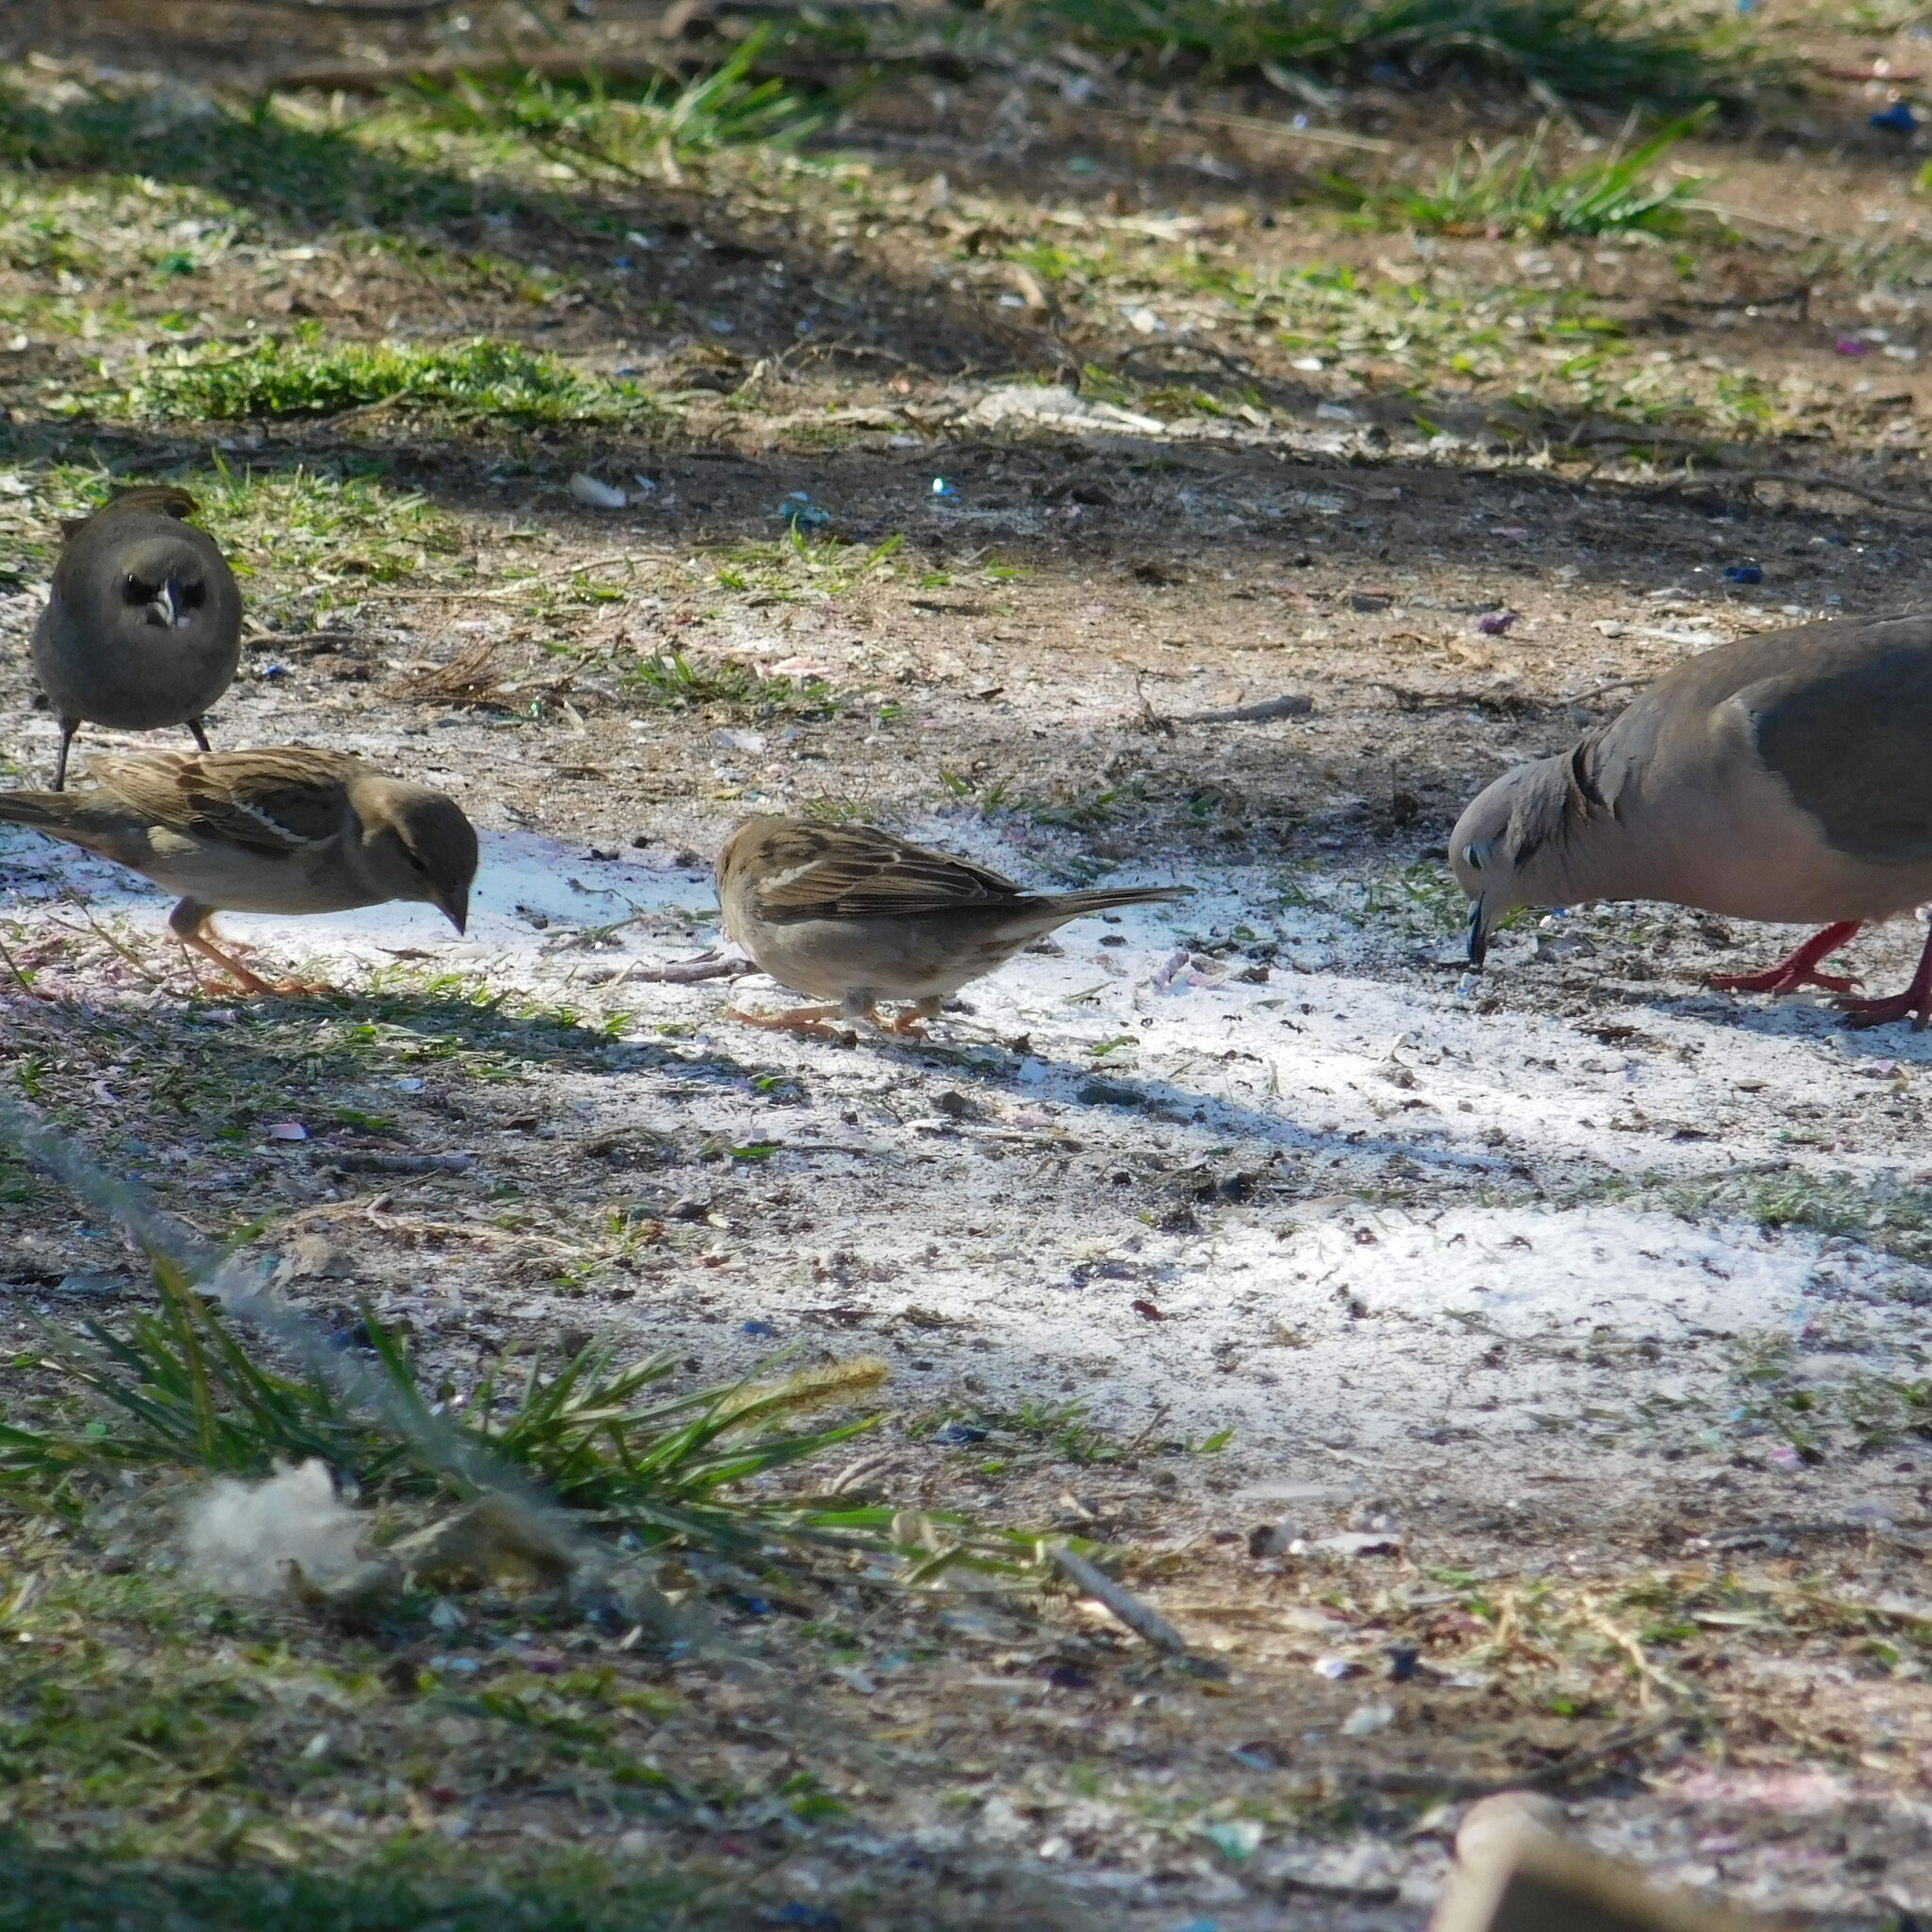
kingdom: Animalia
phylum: Chordata
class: Aves
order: Passeriformes
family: Passeridae
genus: Passer
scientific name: Passer domesticus
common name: House sparrow
